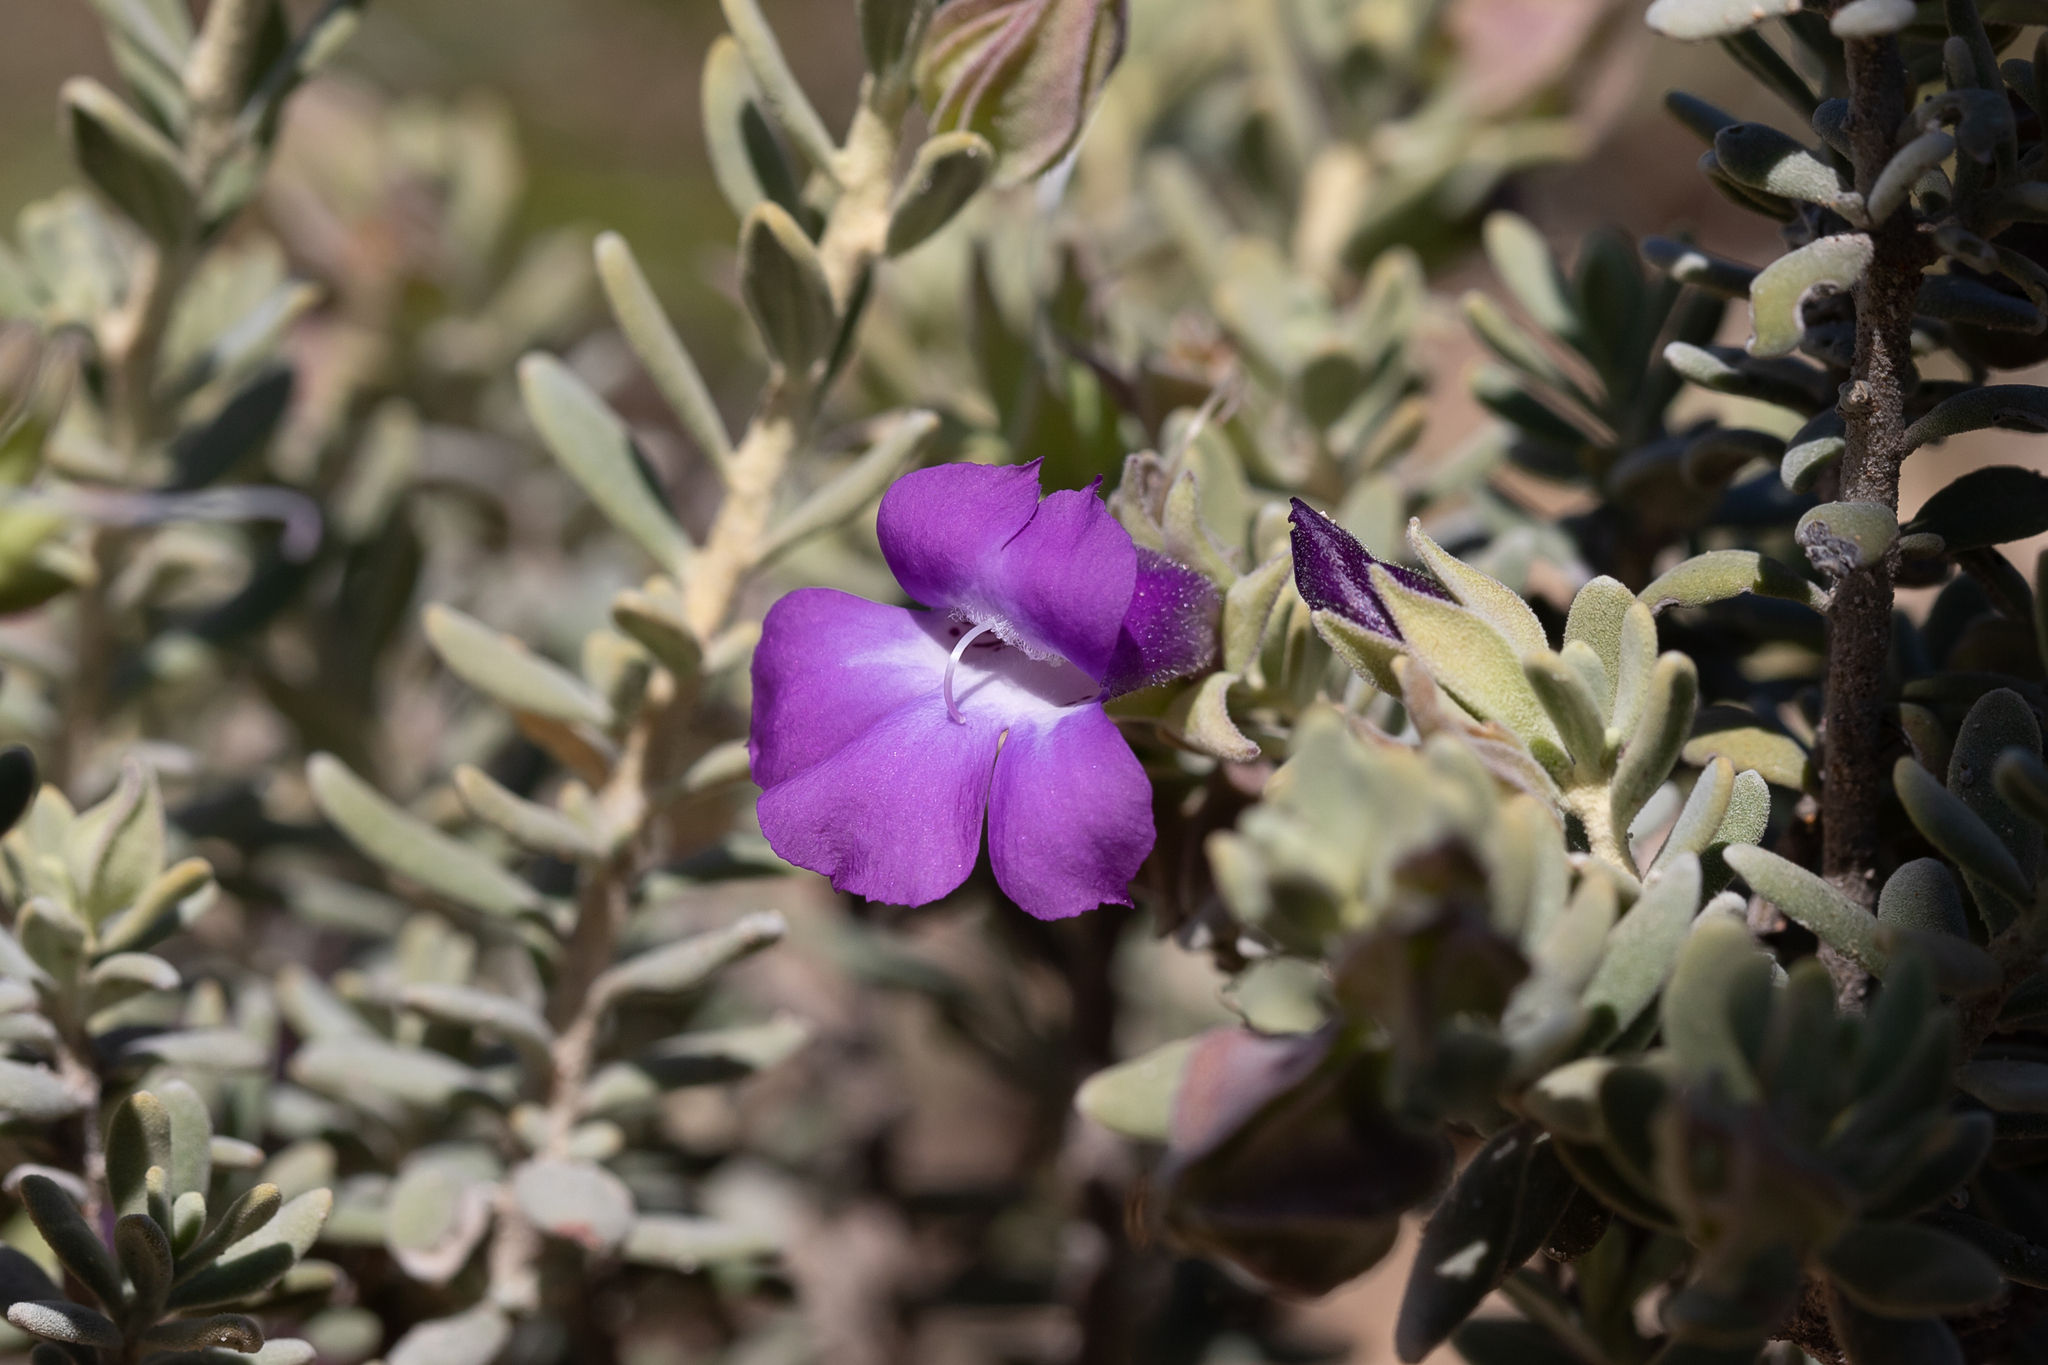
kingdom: Plantae
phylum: Tracheophyta
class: Magnoliopsida
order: Lamiales
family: Scrophulariaceae
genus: Eremophila
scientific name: Eremophila cordatisepala
